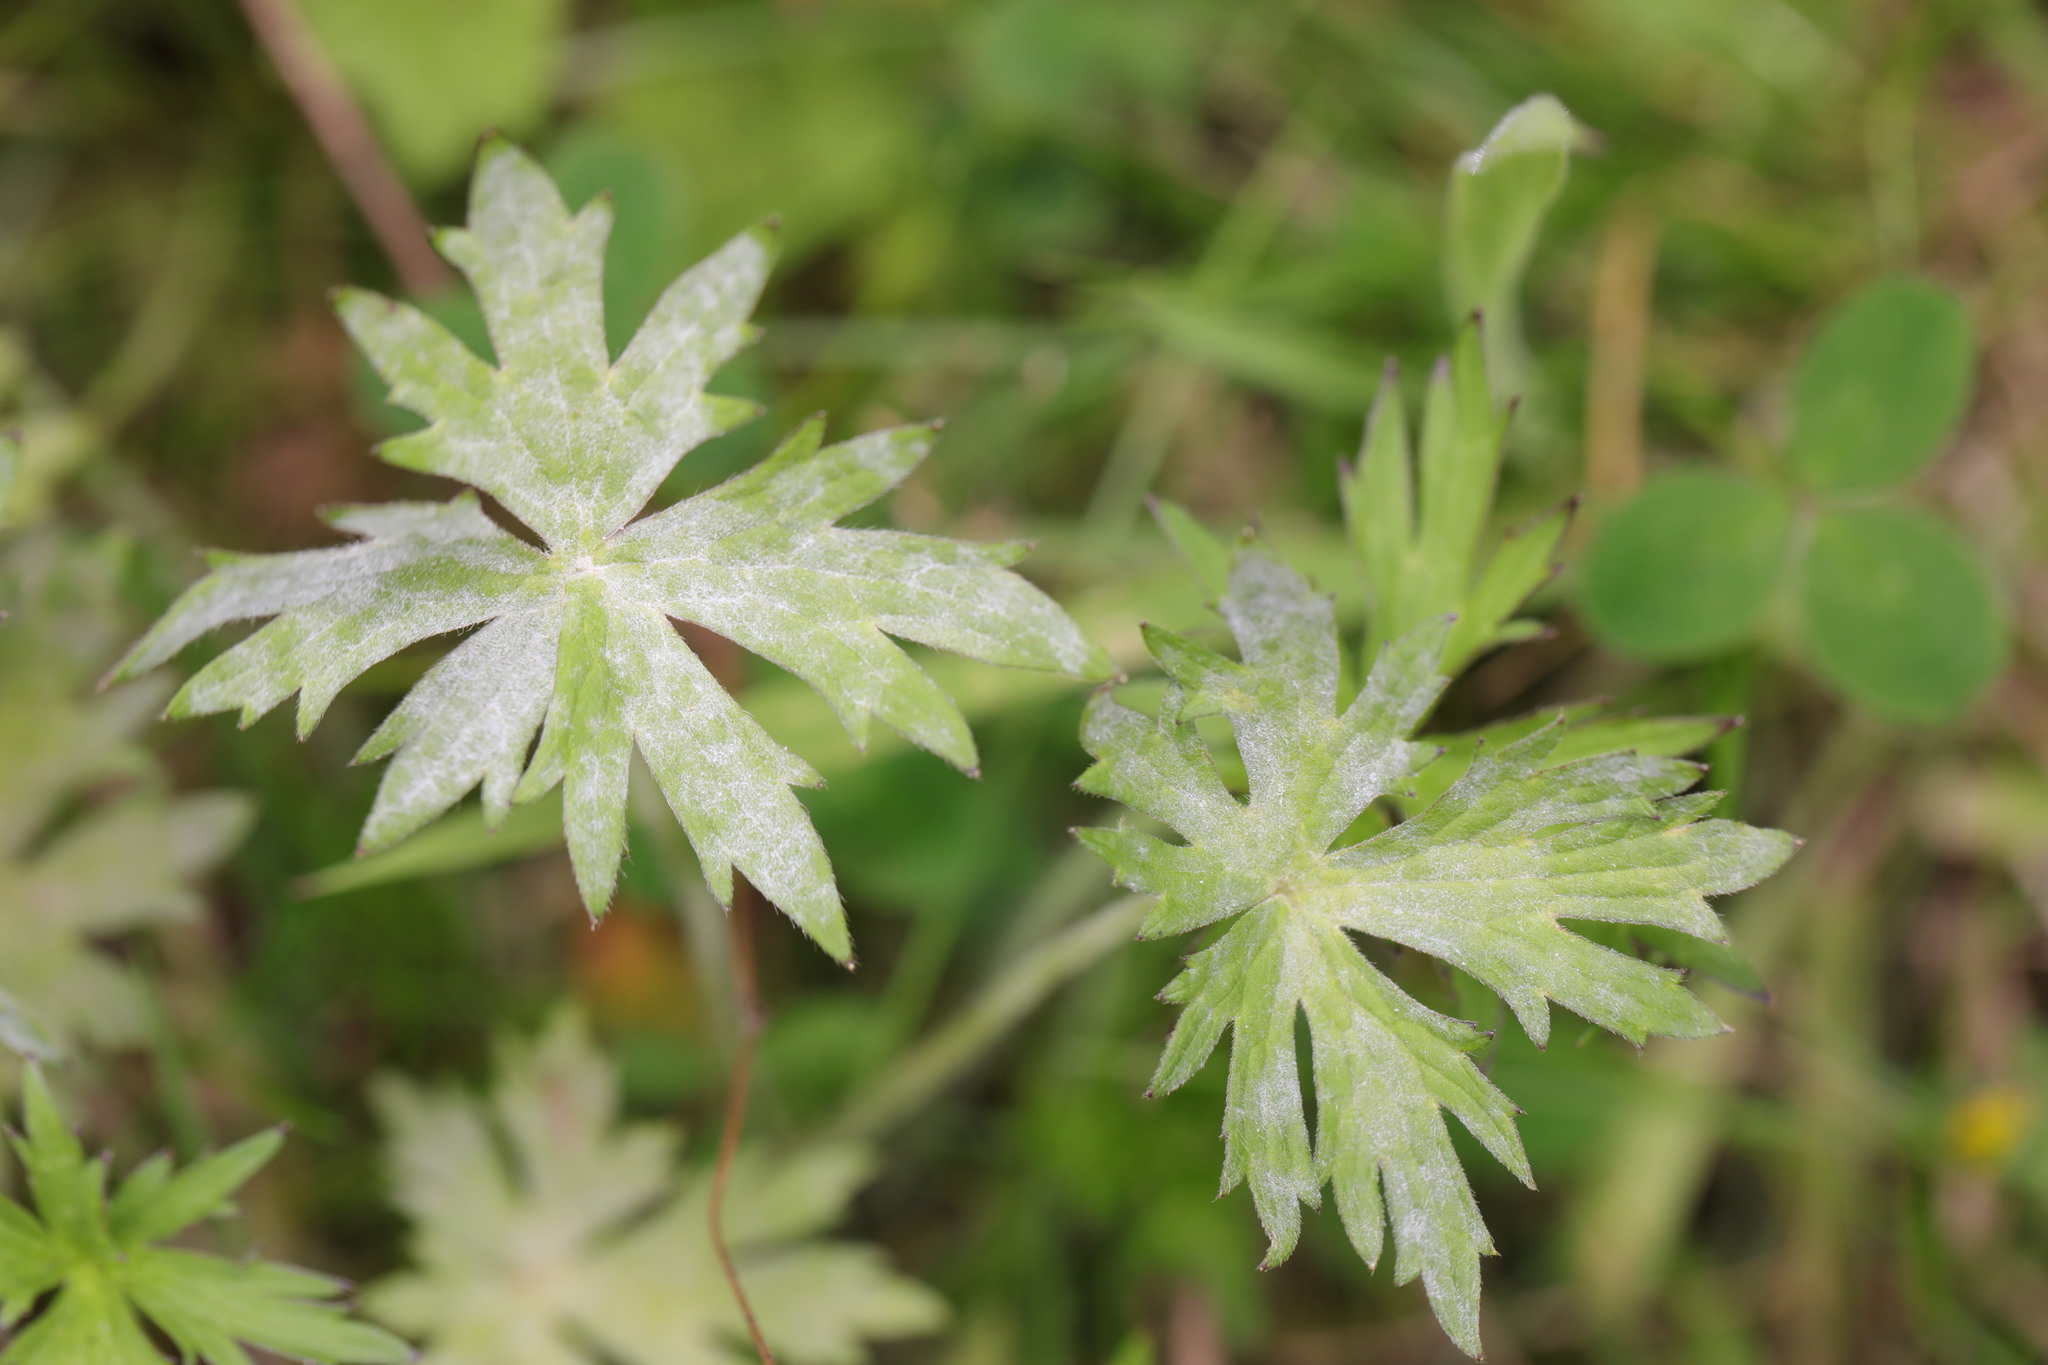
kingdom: Fungi
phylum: Ascomycota
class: Leotiomycetes
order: Helotiales
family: Erysiphaceae
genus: Erysiphe
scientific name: Erysiphe aquilegiae
